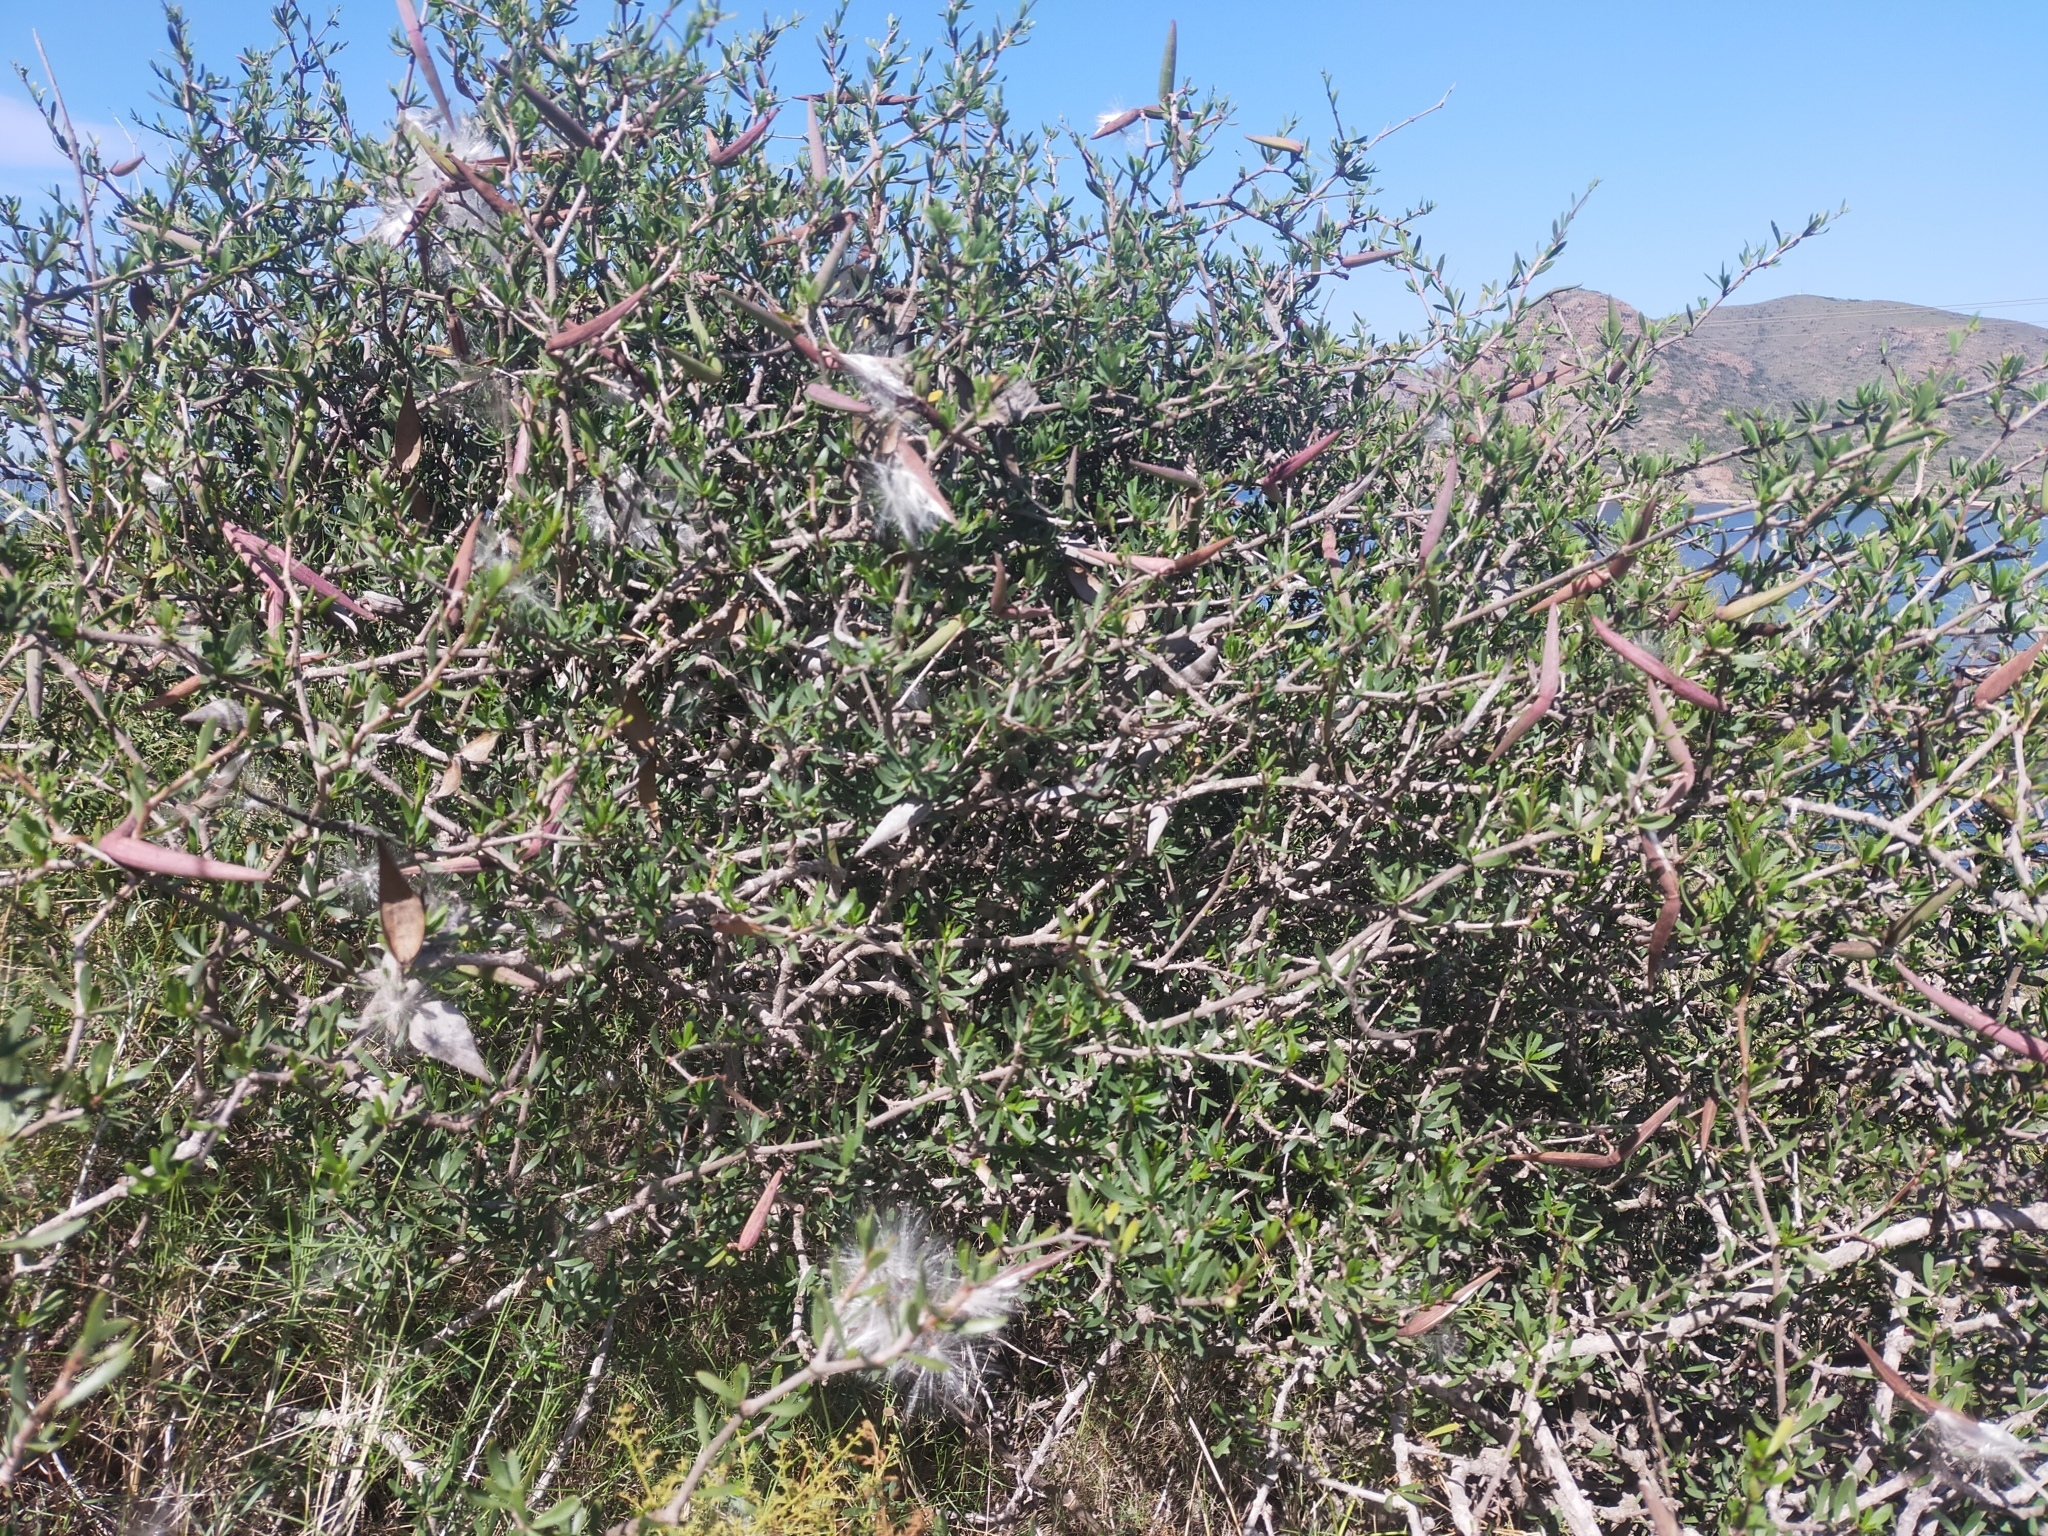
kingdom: Plantae
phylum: Tracheophyta
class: Magnoliopsida
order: Gentianales
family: Apocynaceae
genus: Periploca
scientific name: Periploca laevigata
